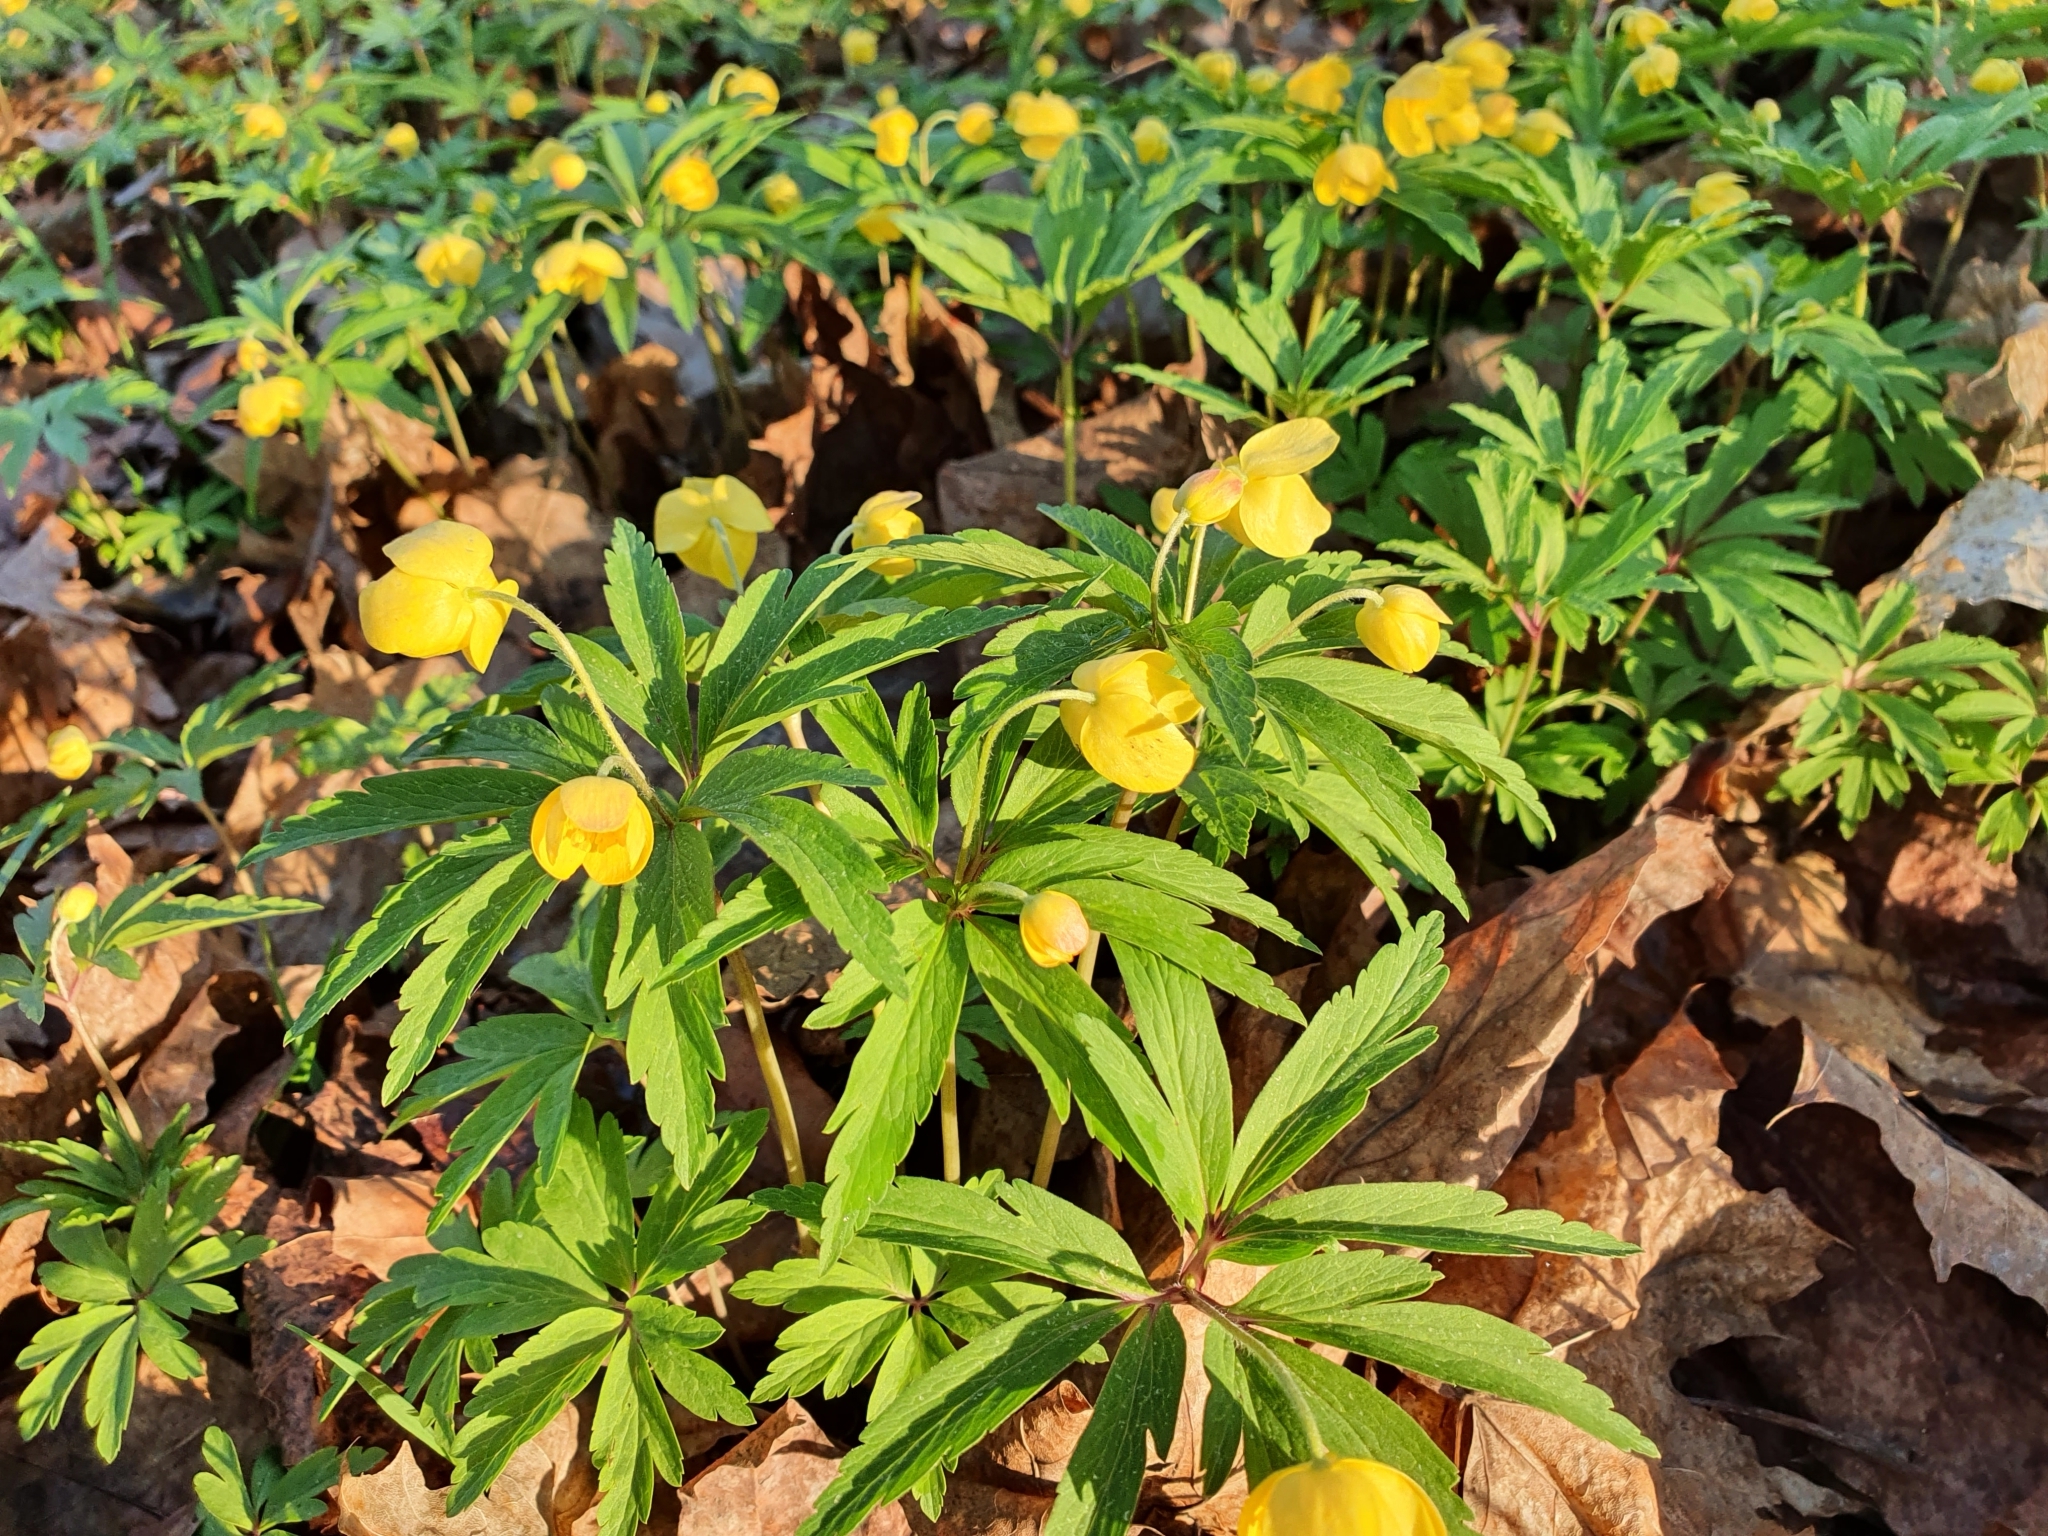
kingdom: Plantae
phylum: Tracheophyta
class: Magnoliopsida
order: Ranunculales
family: Ranunculaceae
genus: Anemone
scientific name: Anemone ranunculoides
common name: Yellow anemone
